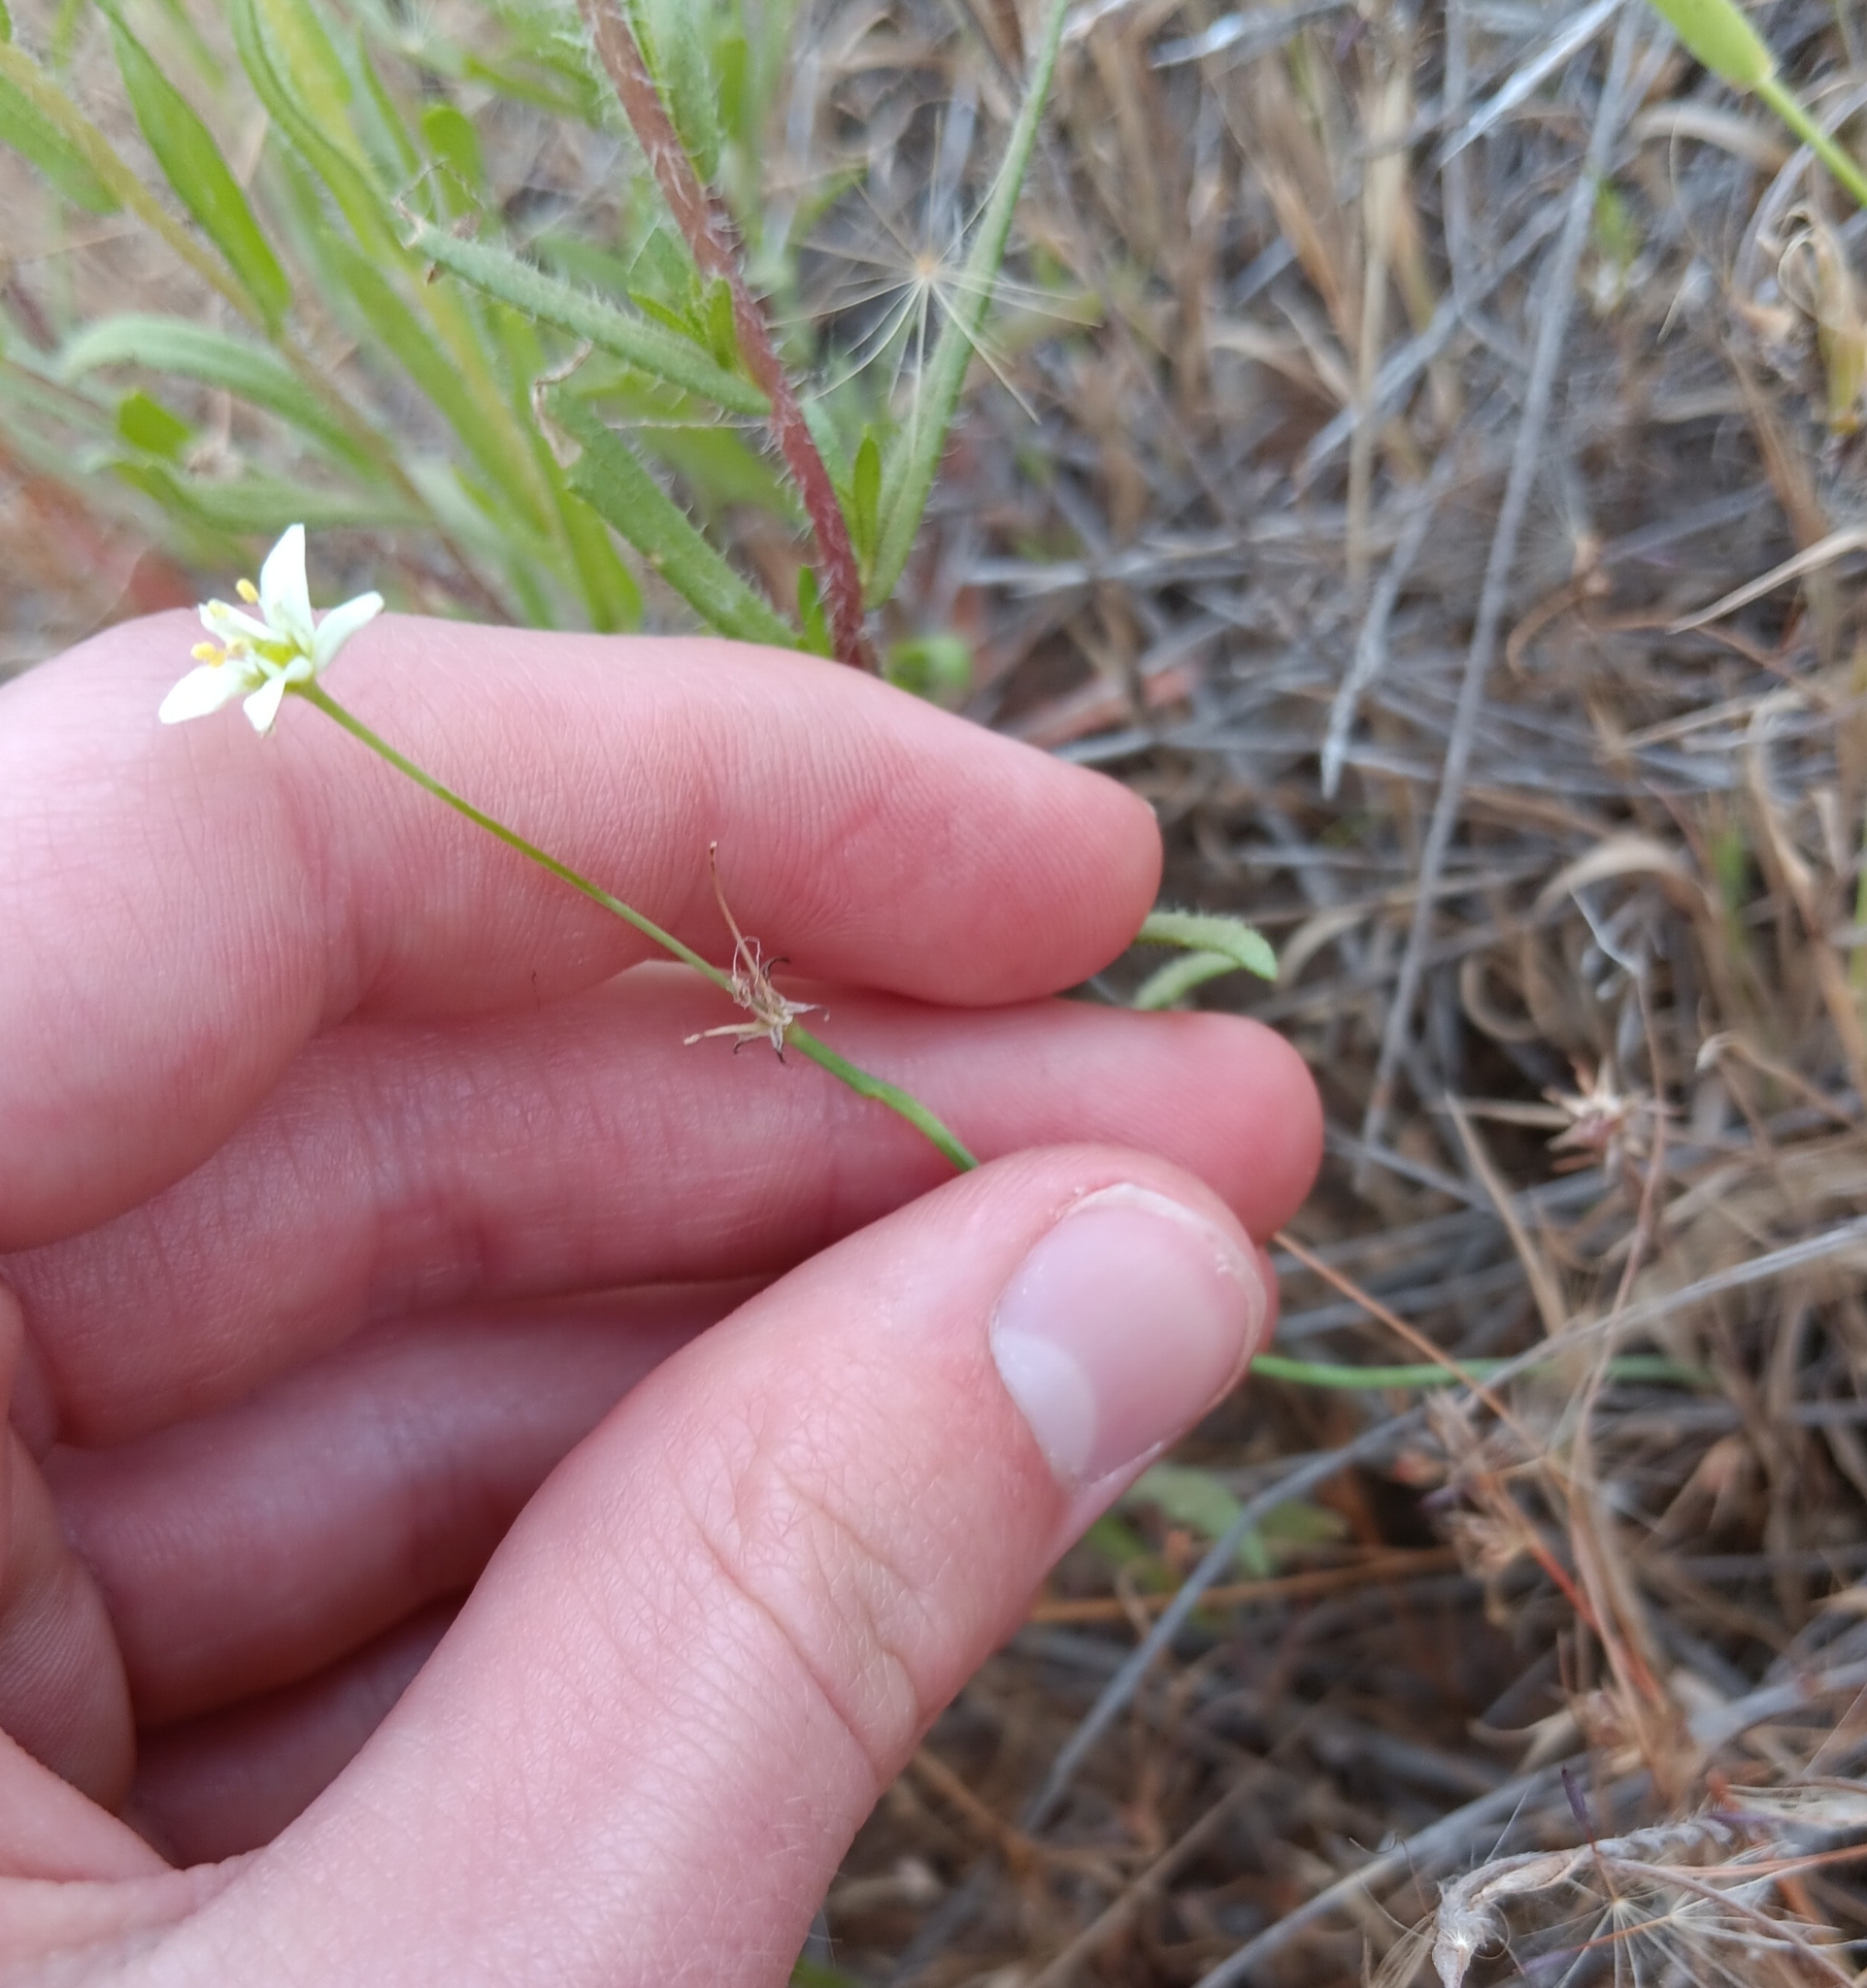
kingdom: Plantae
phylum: Tracheophyta
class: Liliopsida
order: Asparagales
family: Asparagaceae
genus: Muilla
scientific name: Muilla maritima
